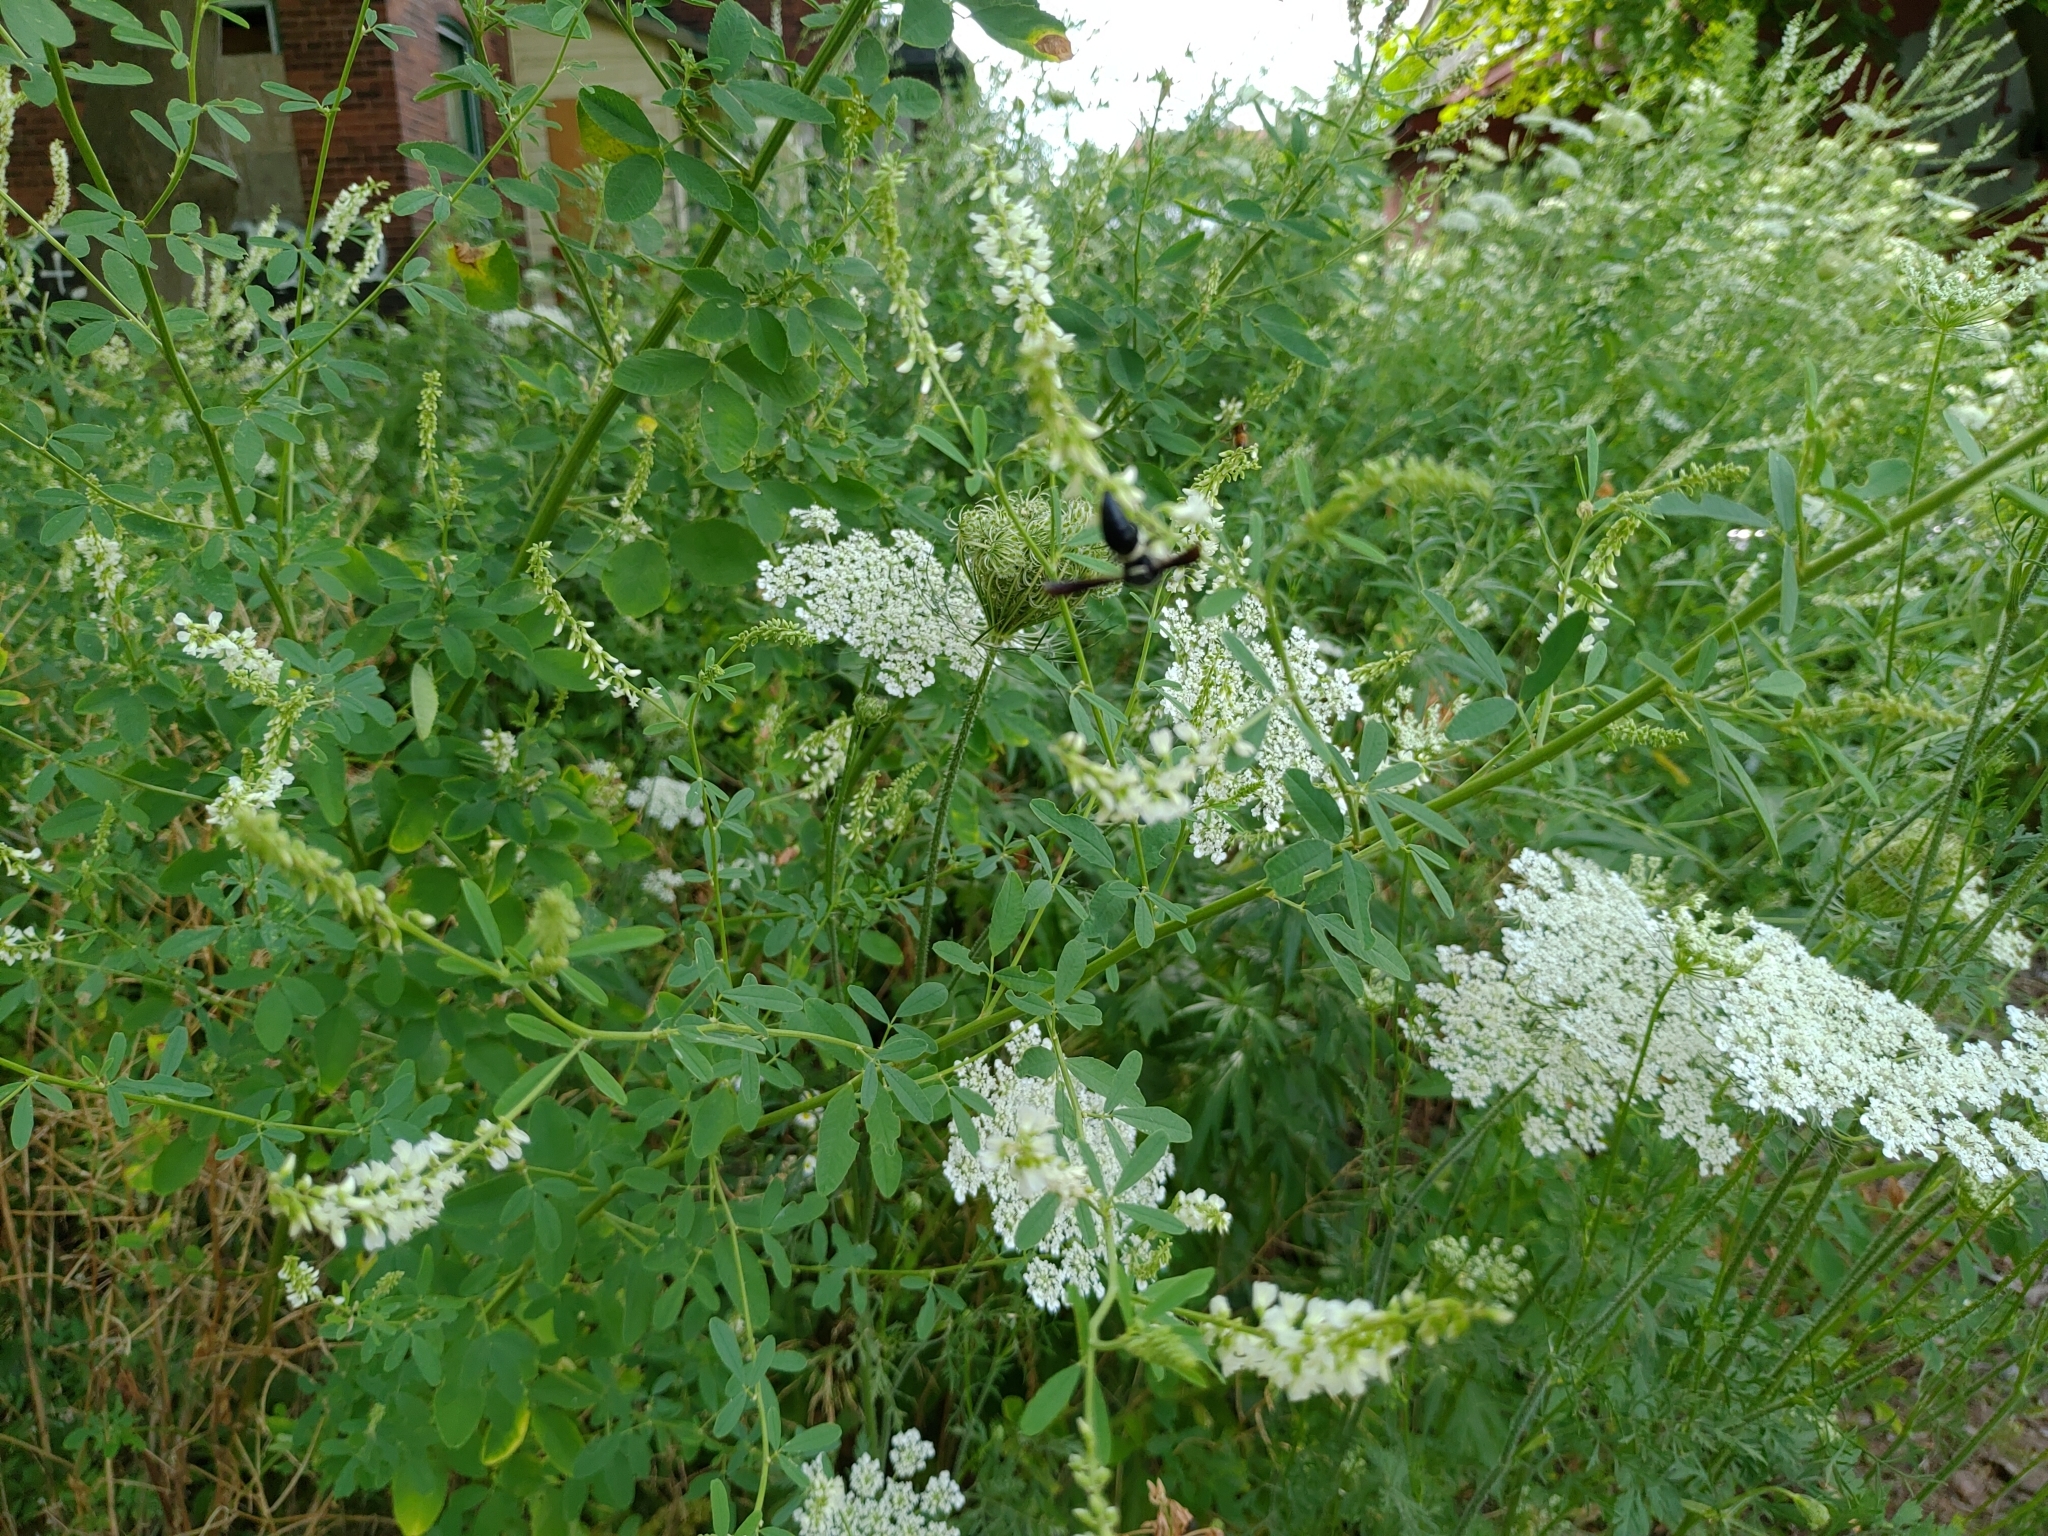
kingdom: Animalia
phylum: Arthropoda
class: Insecta
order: Hymenoptera
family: Eumenidae
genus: Monobia
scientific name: Monobia quadridens
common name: Four-toothed mason wasp
